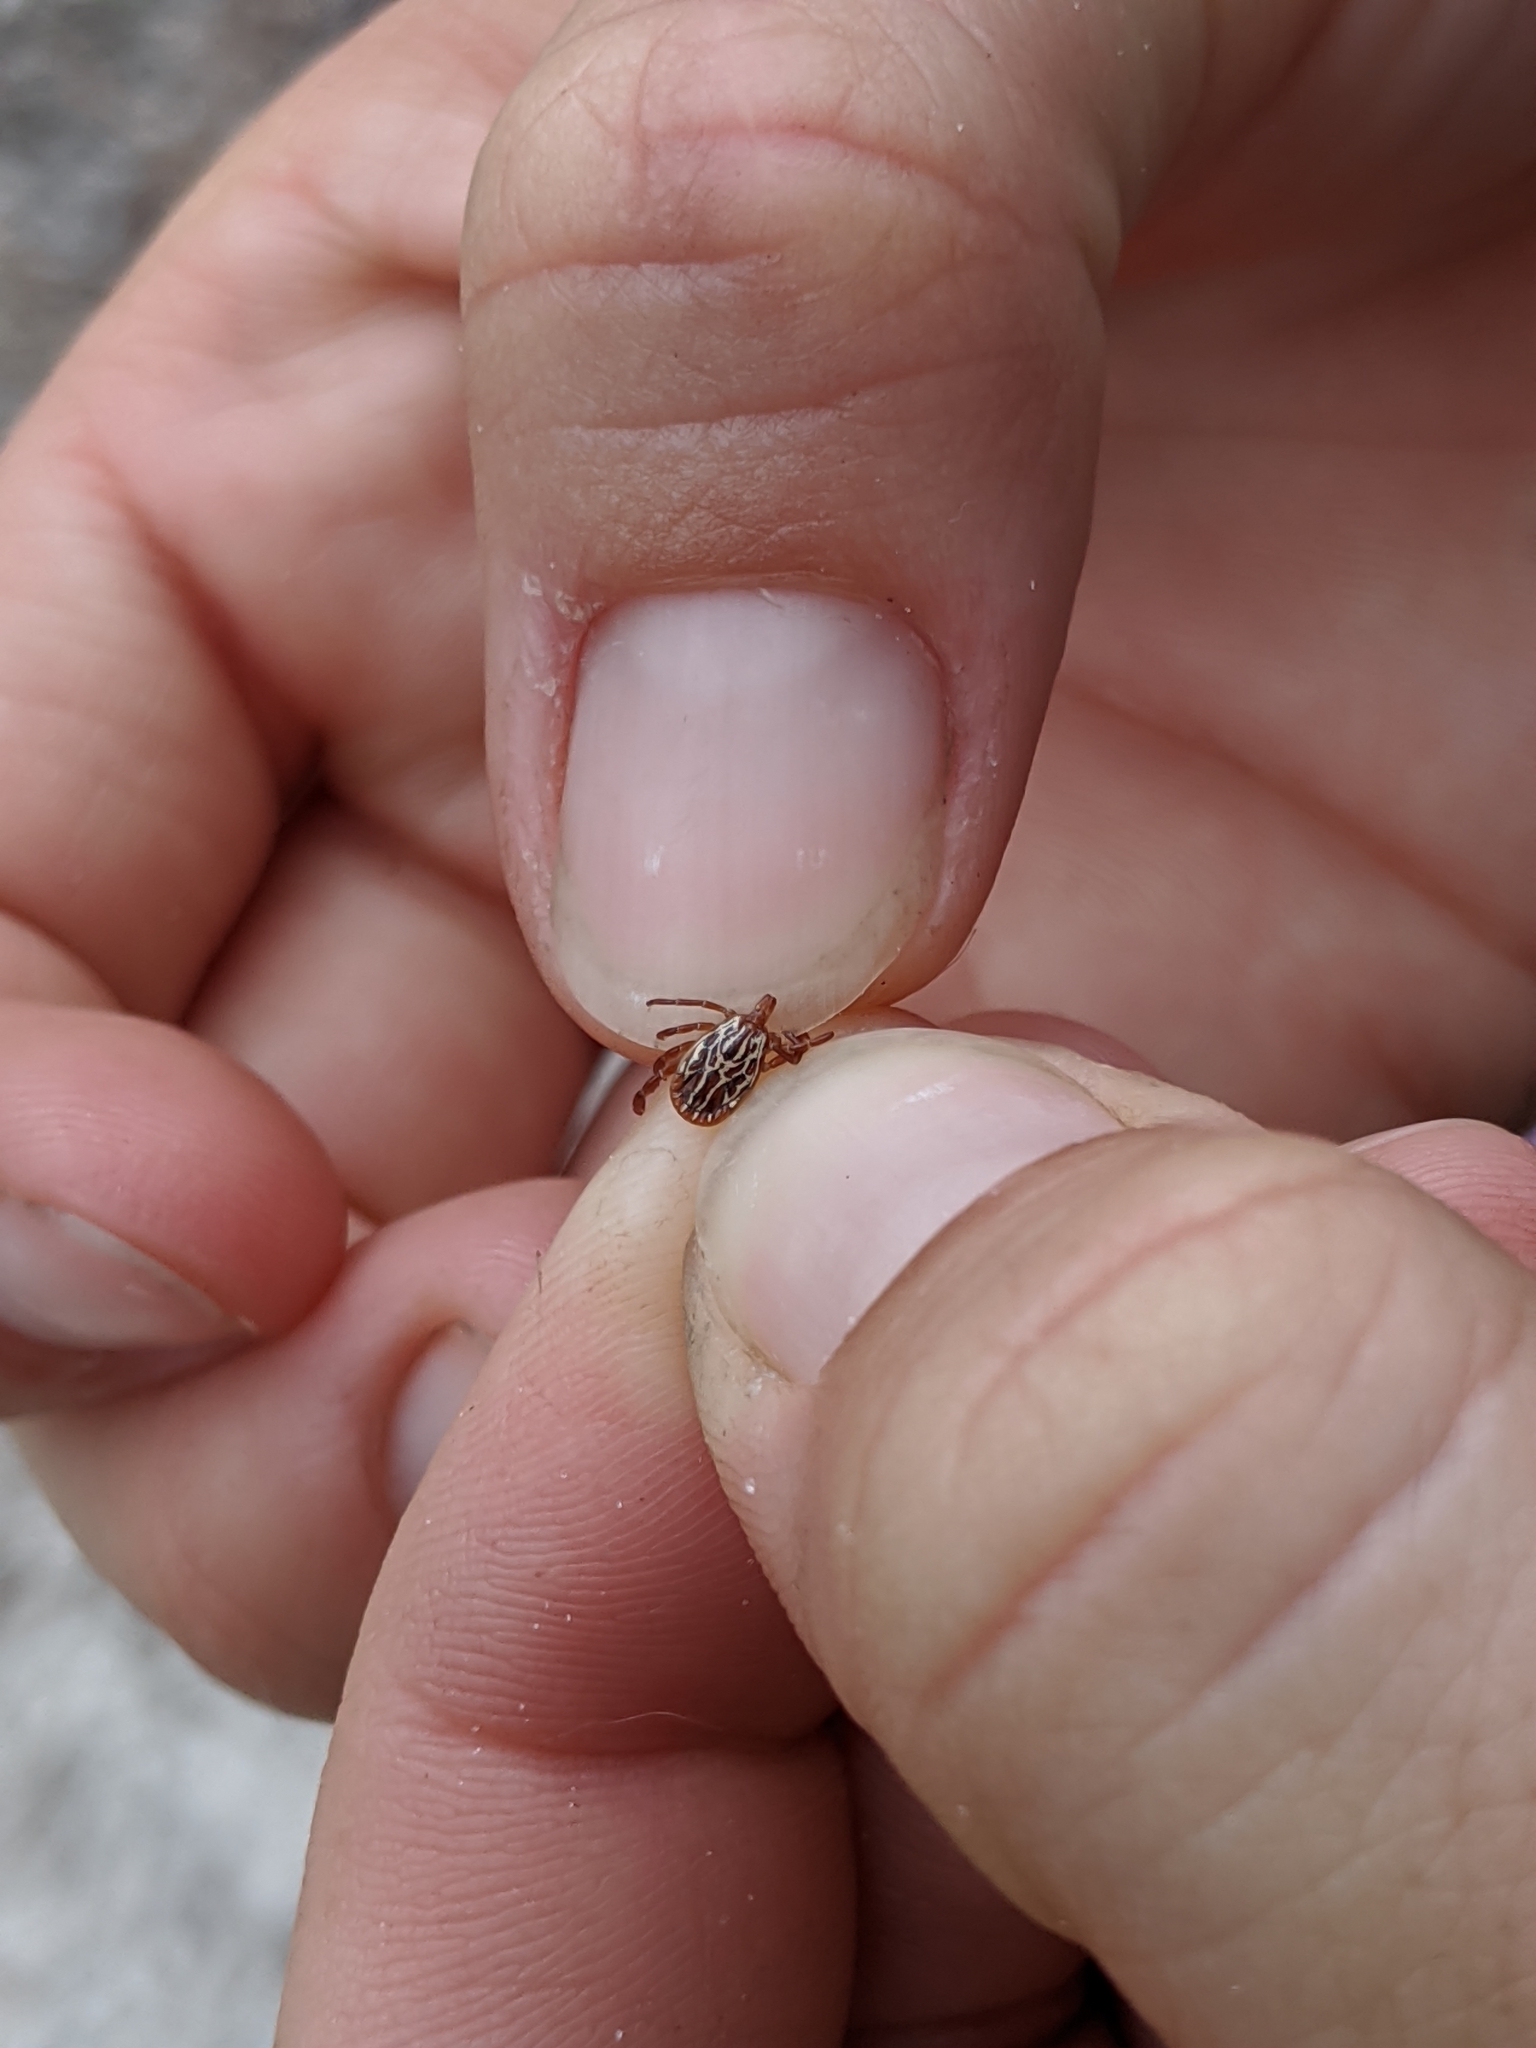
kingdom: Animalia
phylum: Arthropoda
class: Arachnida
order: Ixodida
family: Ixodidae
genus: Amblyomma
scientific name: Amblyomma maculatum
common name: Gulf coast tick
